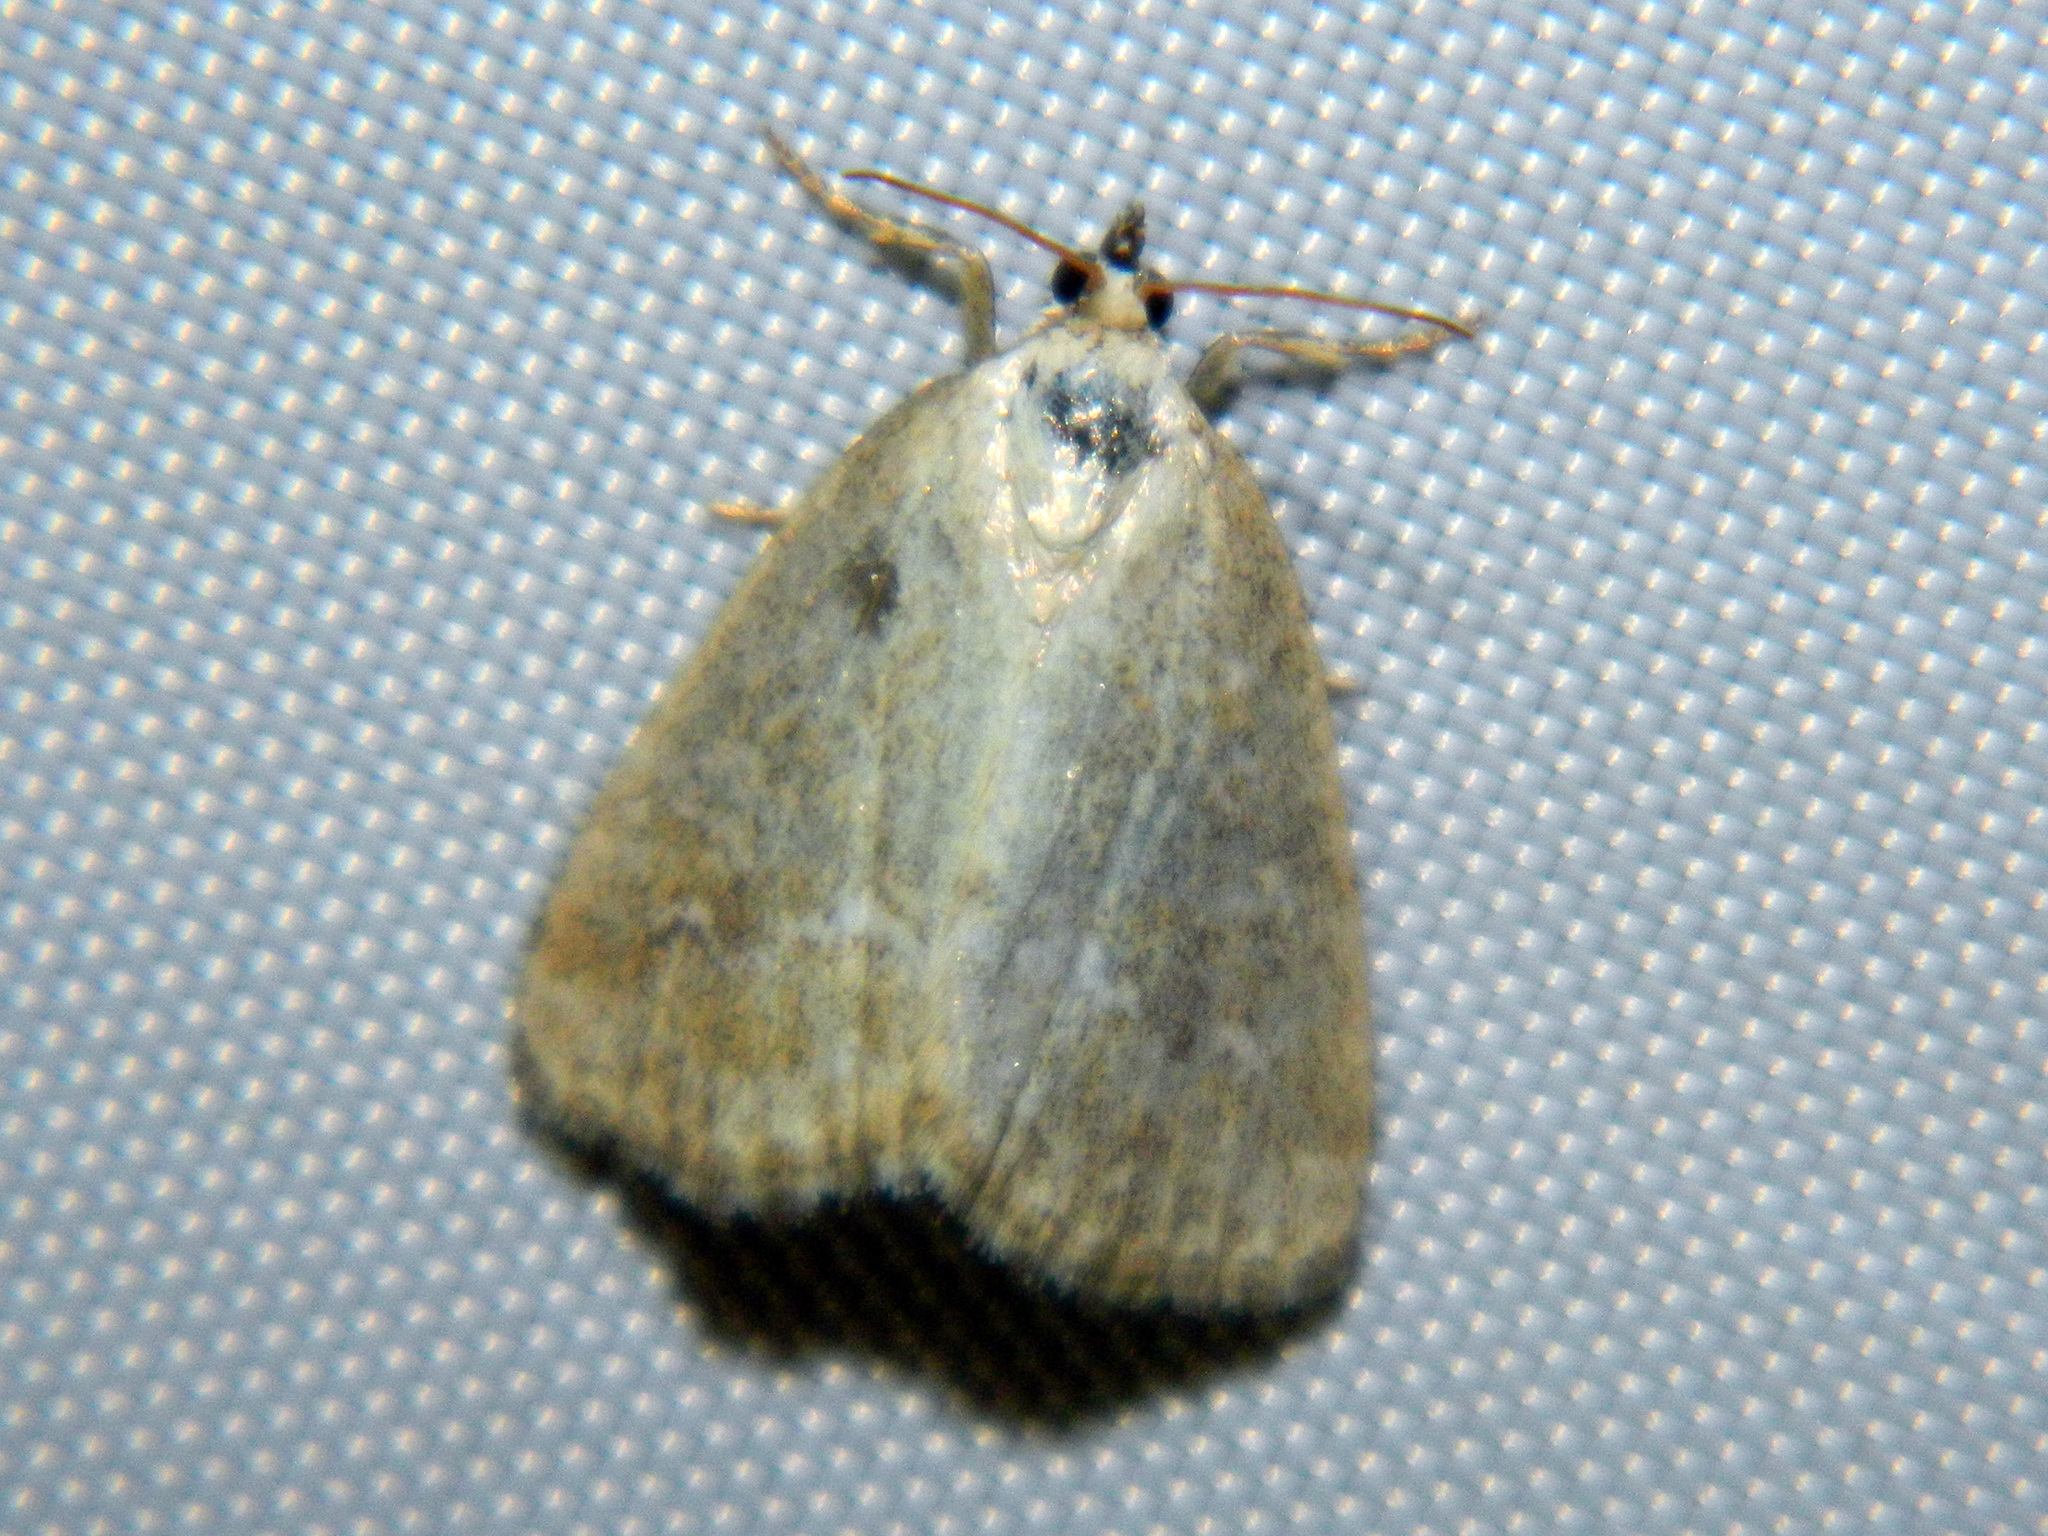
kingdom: Animalia
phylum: Arthropoda
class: Insecta
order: Lepidoptera
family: Noctuidae
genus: Protodeltote
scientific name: Protodeltote albidula
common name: Pale glyph
